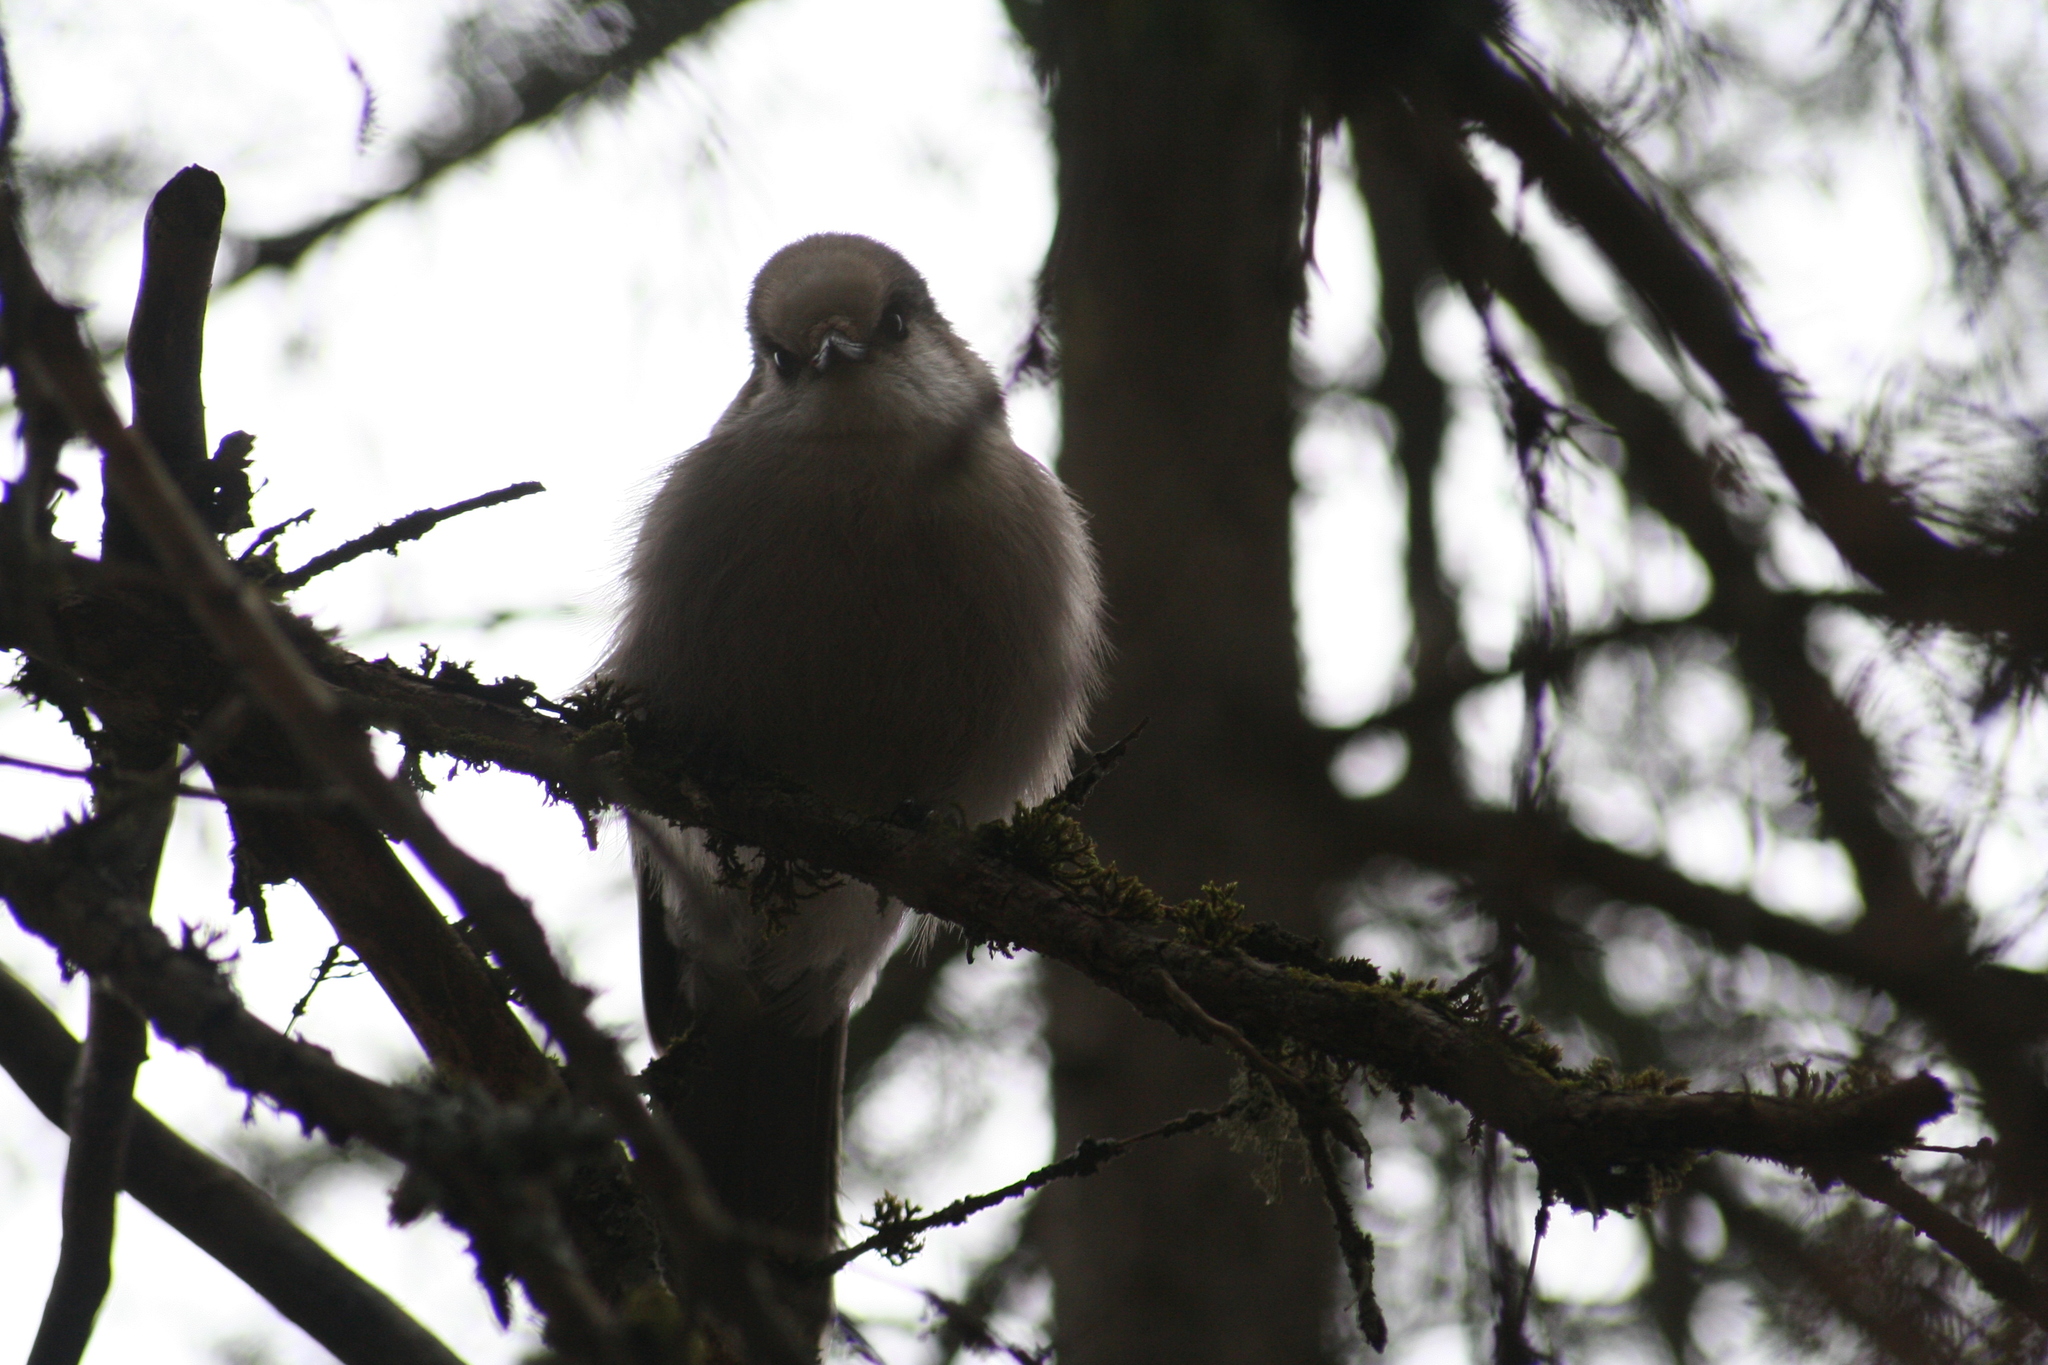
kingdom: Animalia
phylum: Chordata
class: Aves
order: Passeriformes
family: Corvidae
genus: Perisoreus
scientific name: Perisoreus canadensis
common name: Gray jay
